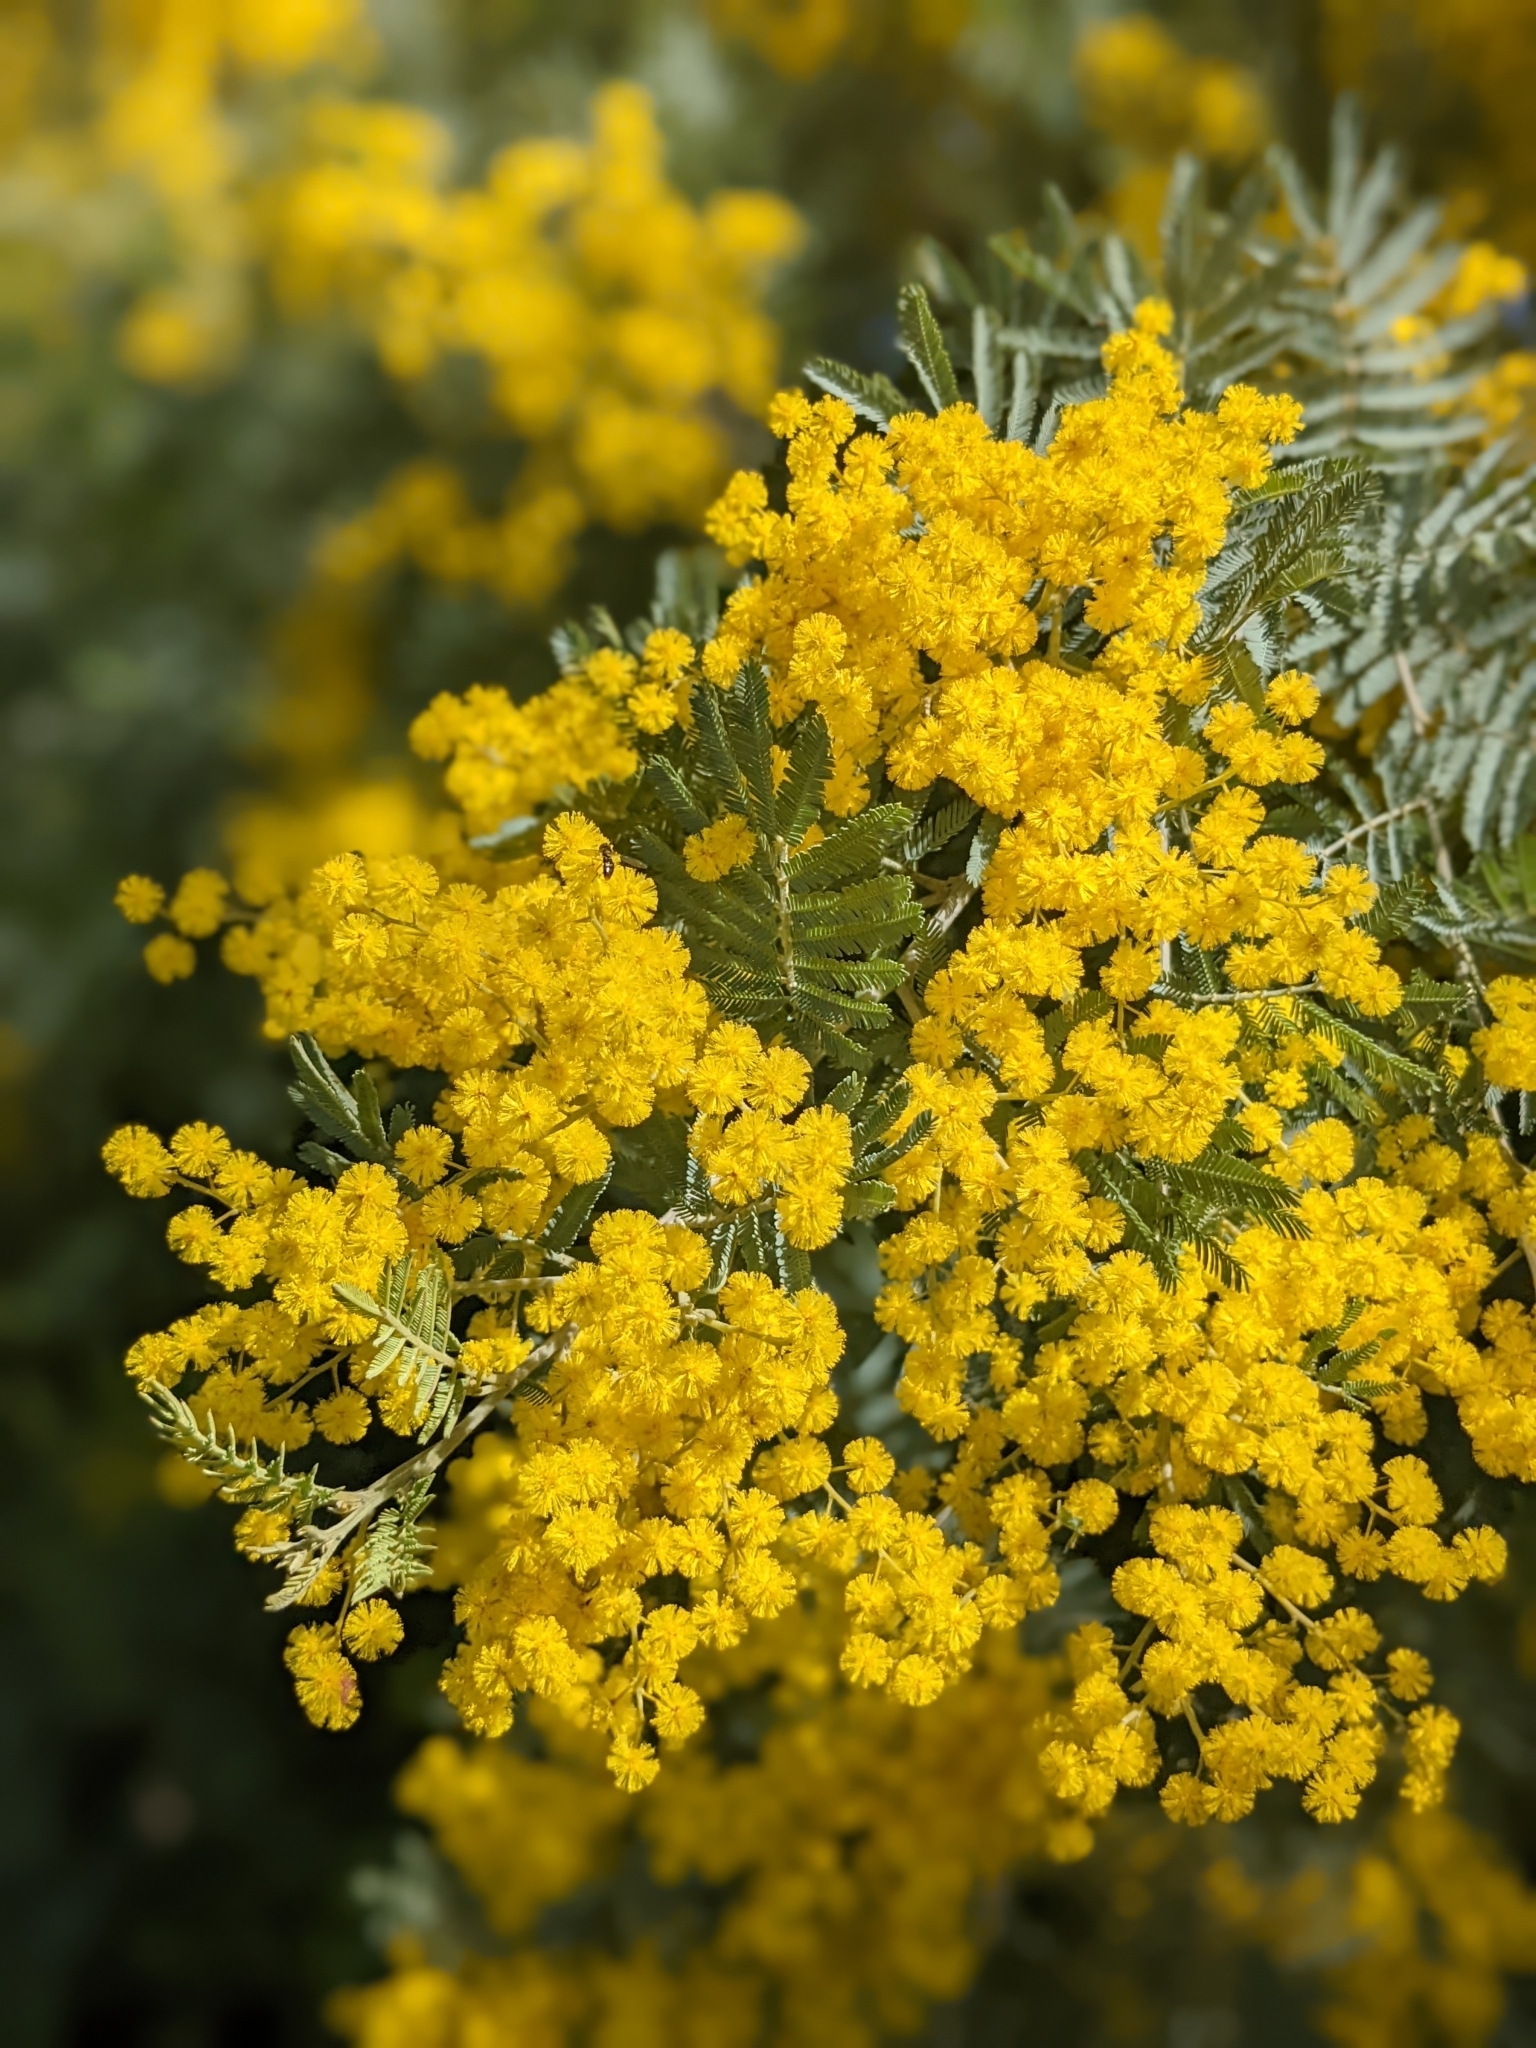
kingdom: Plantae
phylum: Tracheophyta
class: Magnoliopsida
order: Fabales
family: Fabaceae
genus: Acacia
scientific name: Acacia dealbata
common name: Silver wattle
